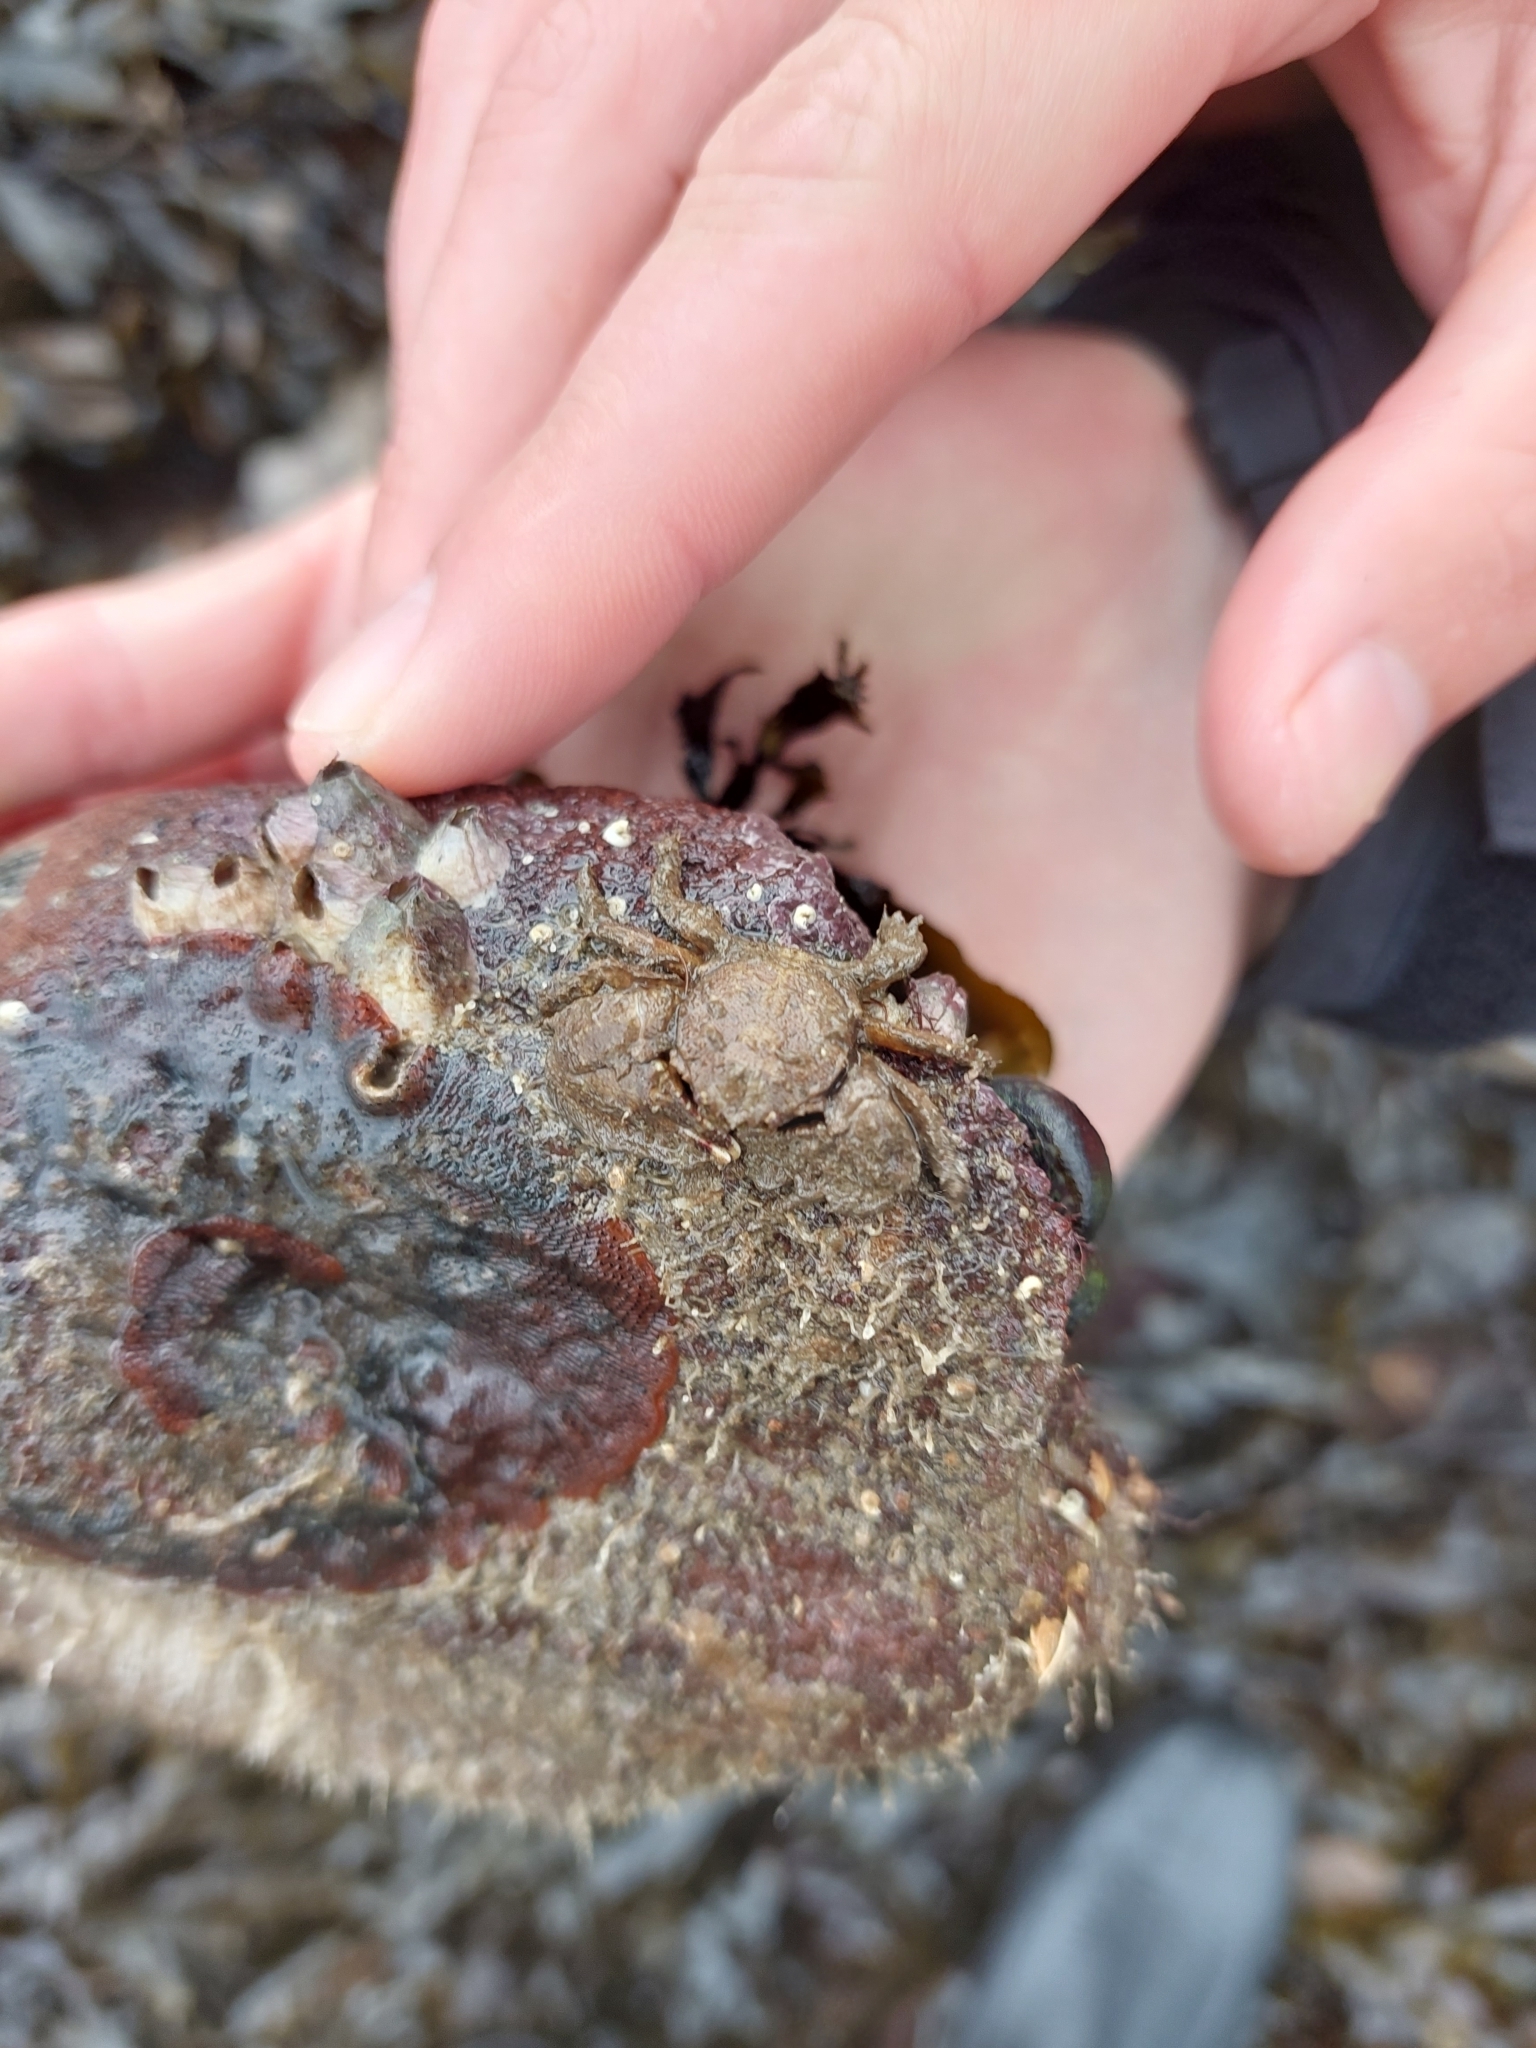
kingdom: Animalia
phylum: Arthropoda
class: Malacostraca
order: Decapoda
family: Porcellanidae
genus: Porcellana
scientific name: Porcellana platycheles
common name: Porcelain crab
